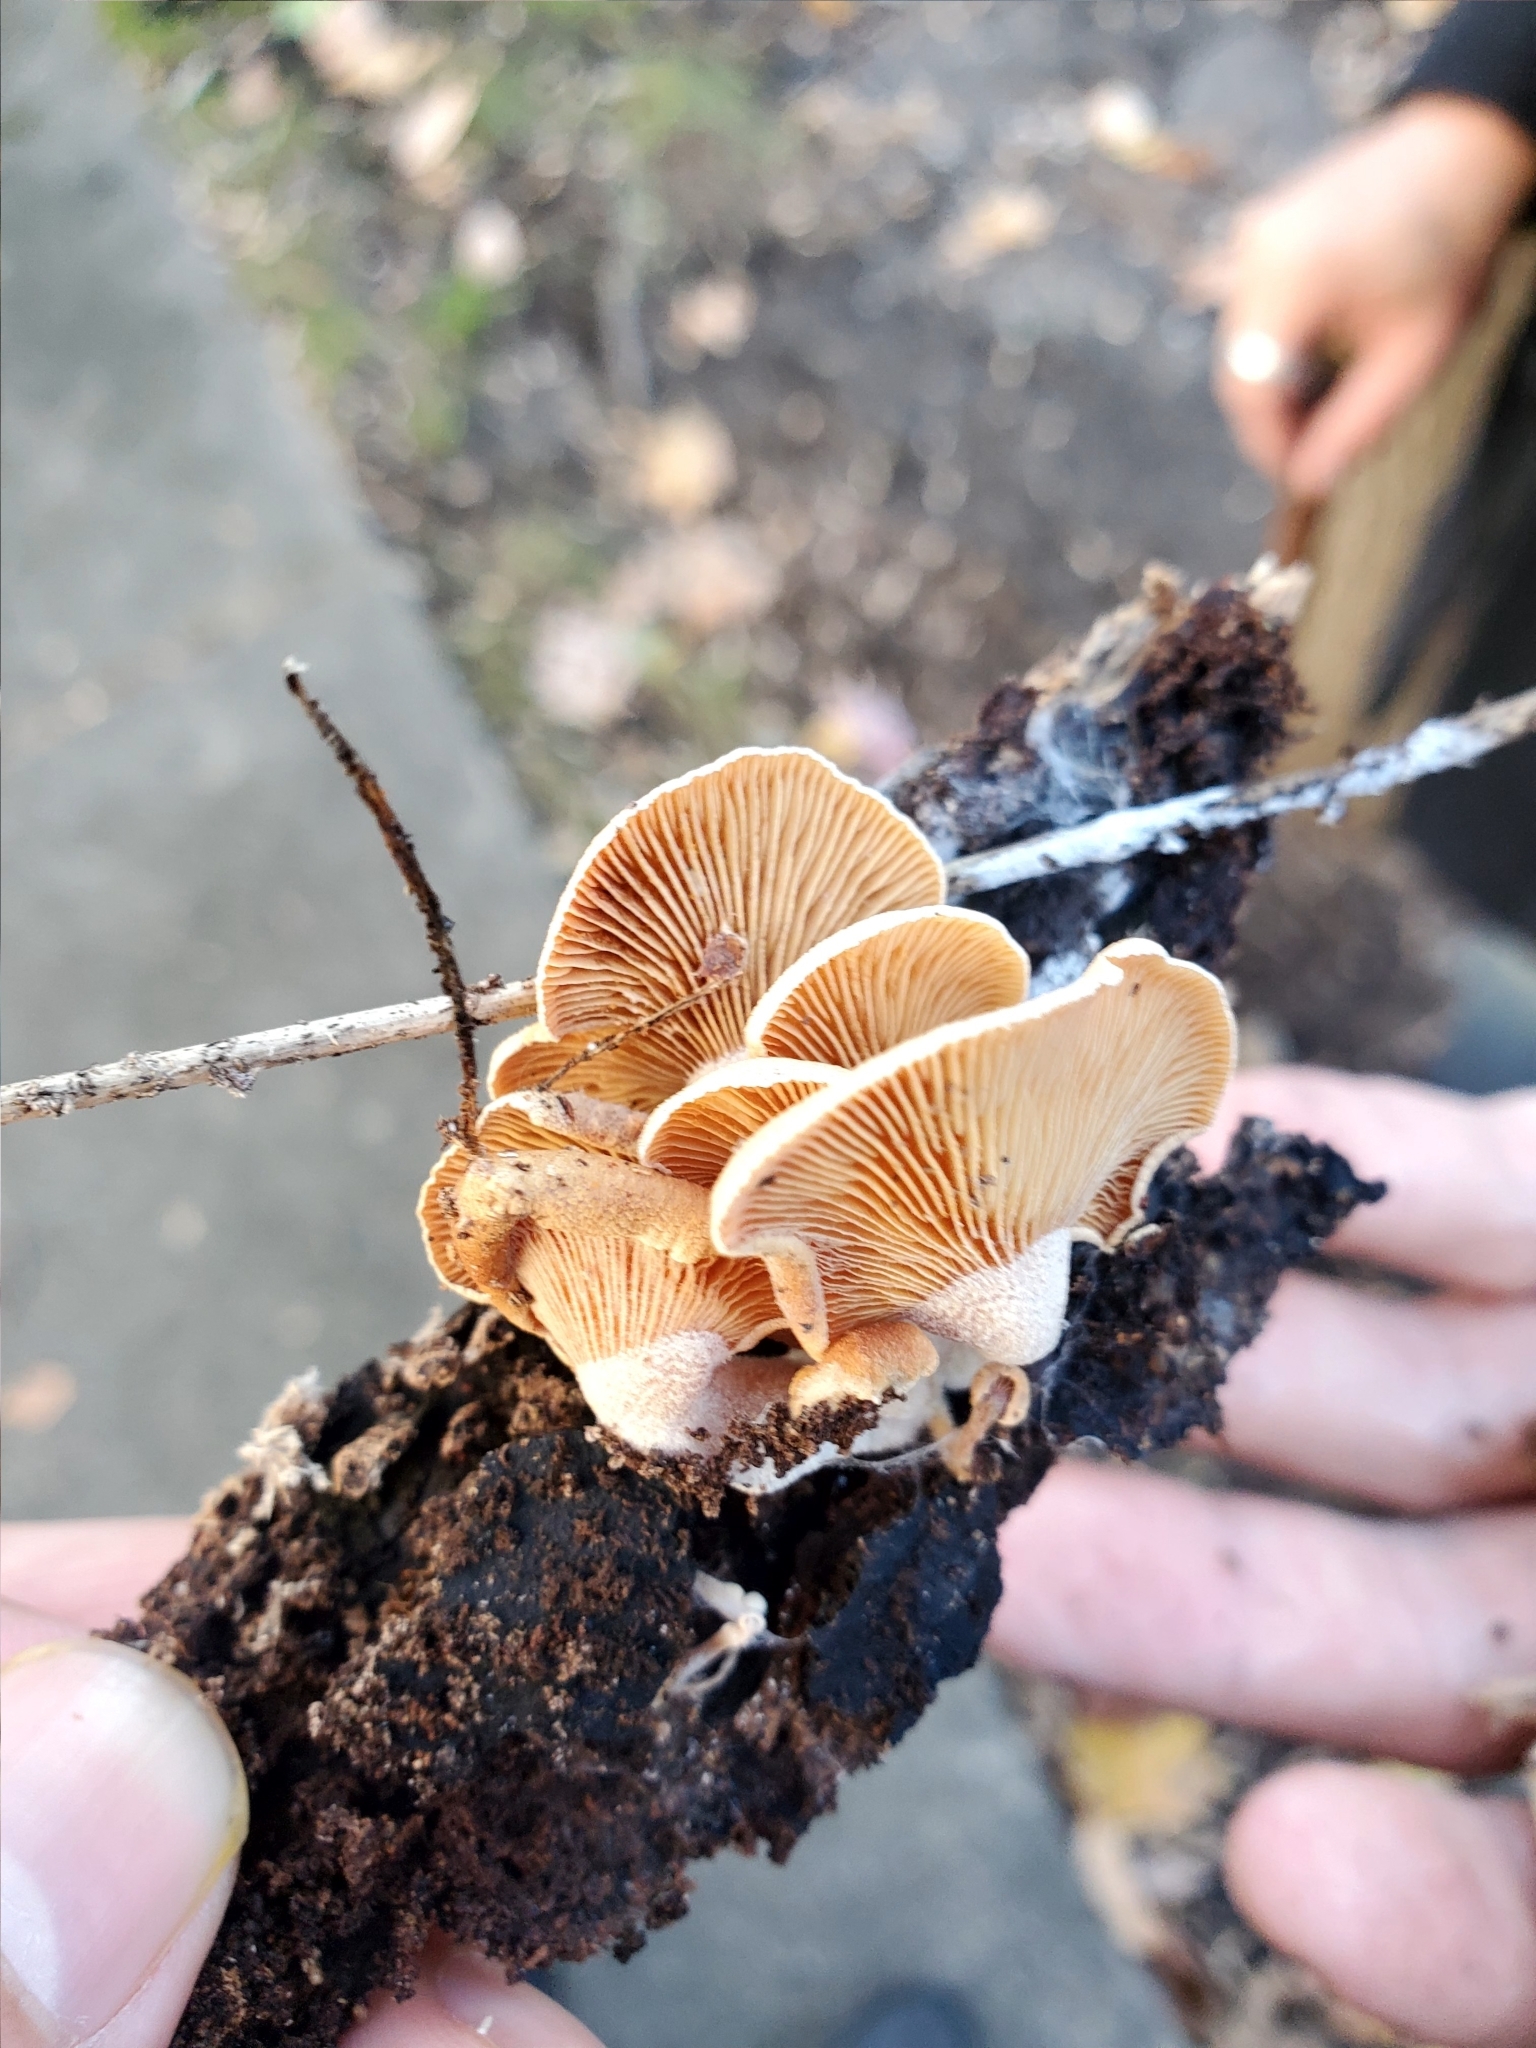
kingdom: Fungi
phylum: Basidiomycota
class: Agaricomycetes
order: Agaricales
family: Mycenaceae
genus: Panellus
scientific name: Panellus stipticus
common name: Bitter oysterling
